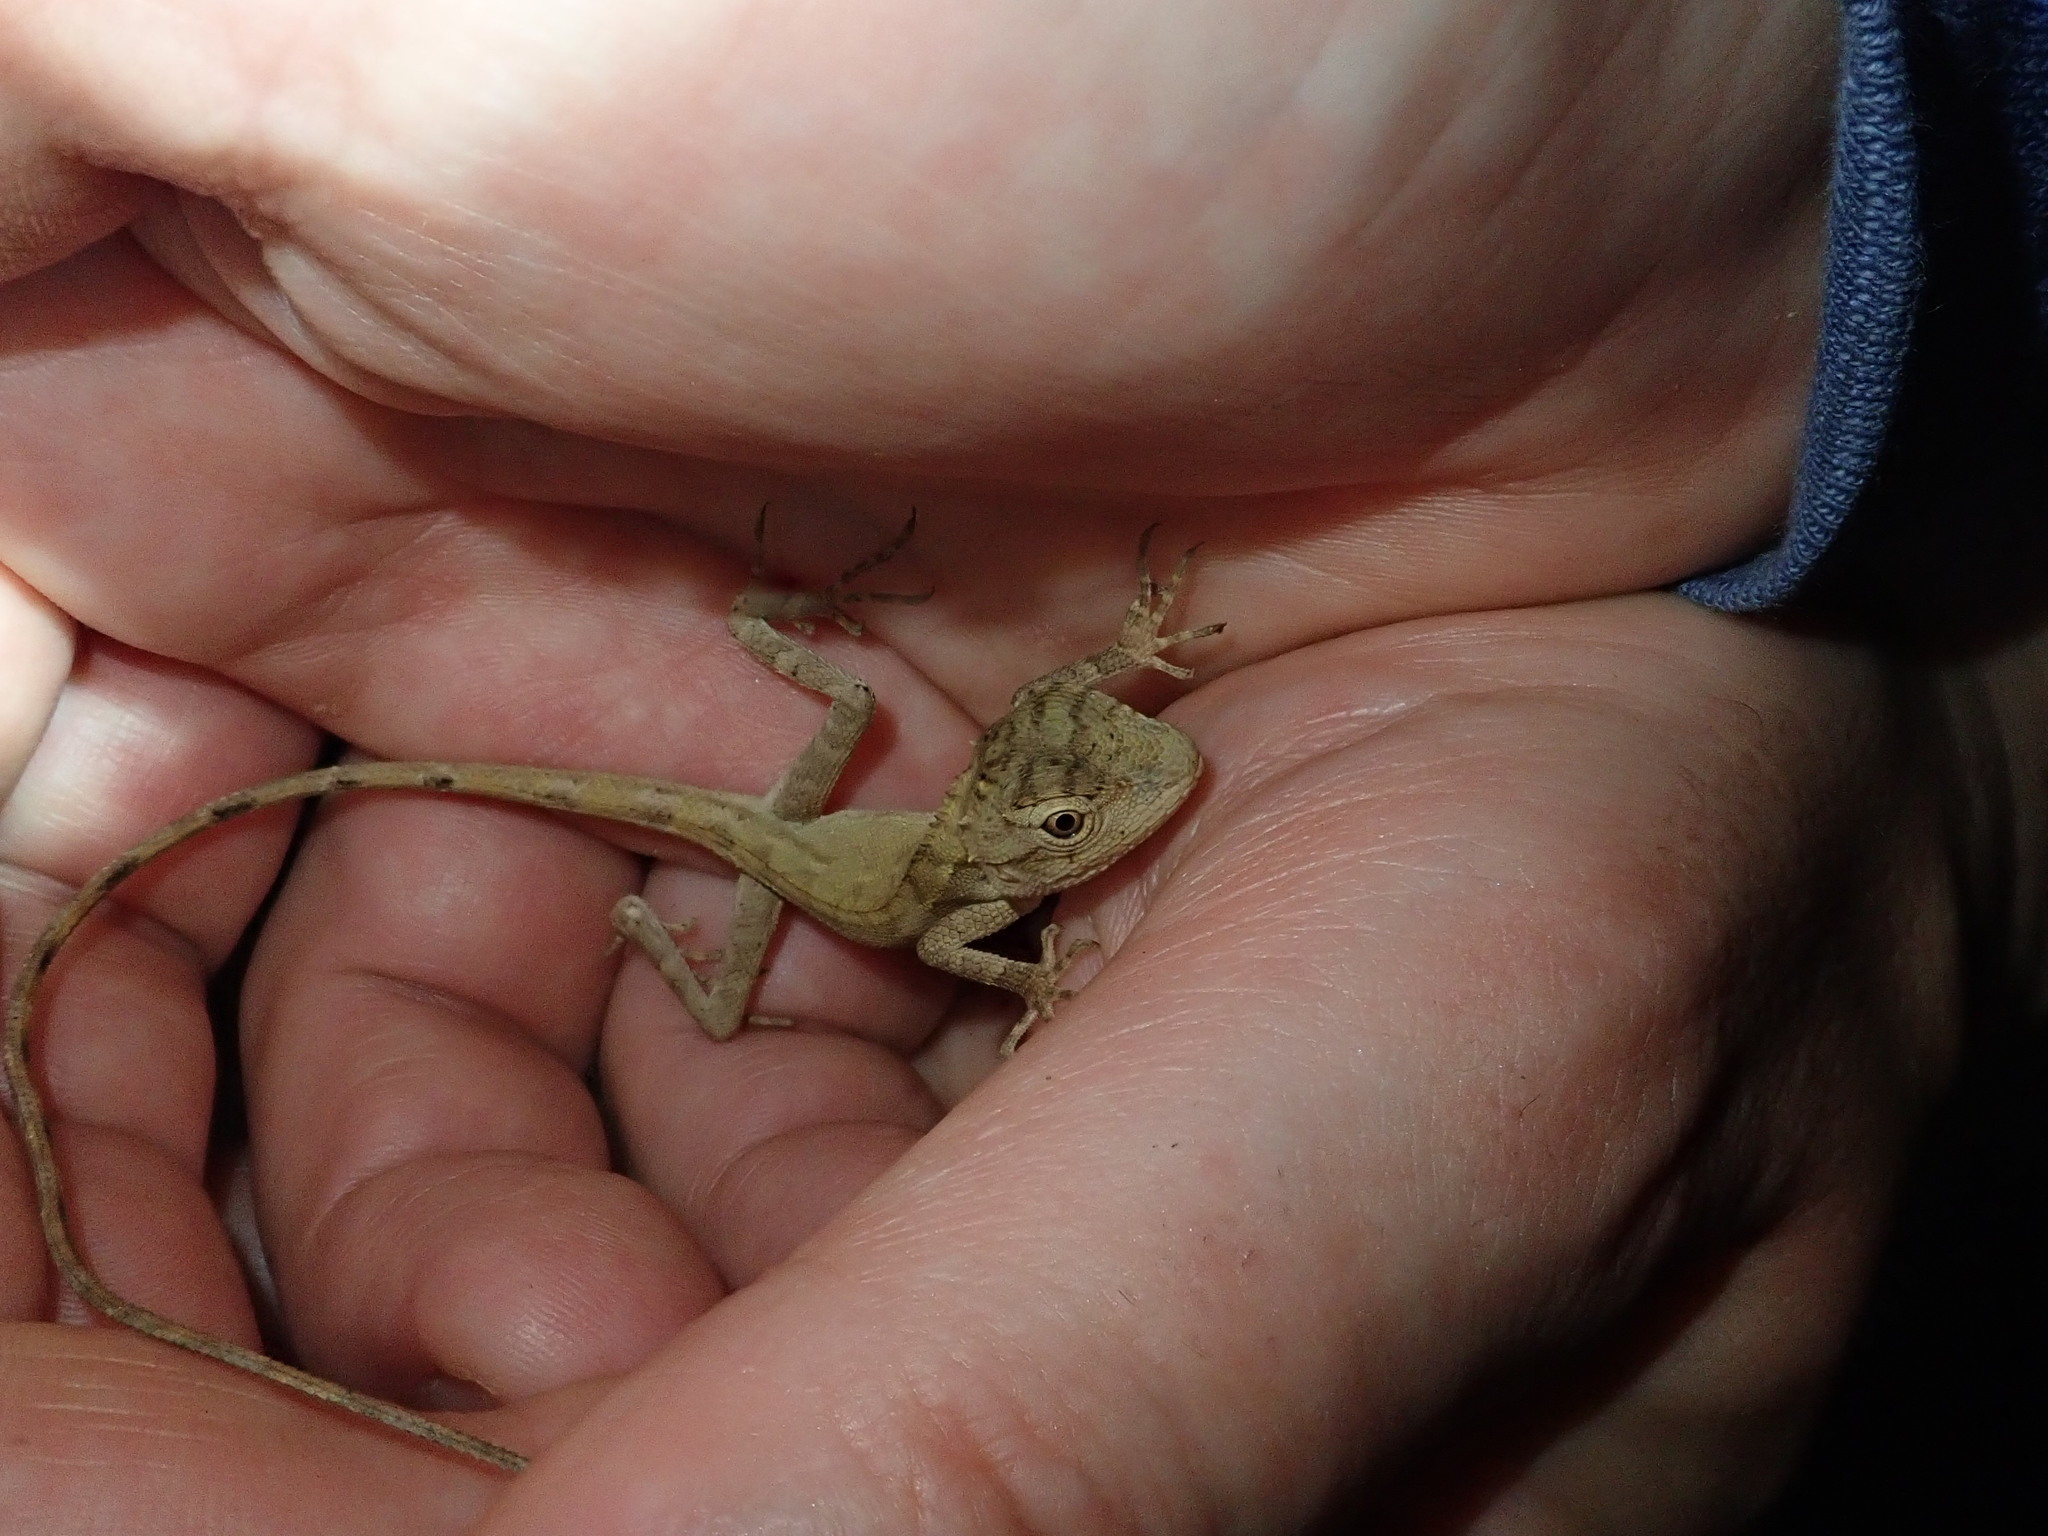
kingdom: Animalia
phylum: Chordata
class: Squamata
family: Agamidae
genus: Calotes
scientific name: Calotes emma
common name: Thailand bloodsucker
